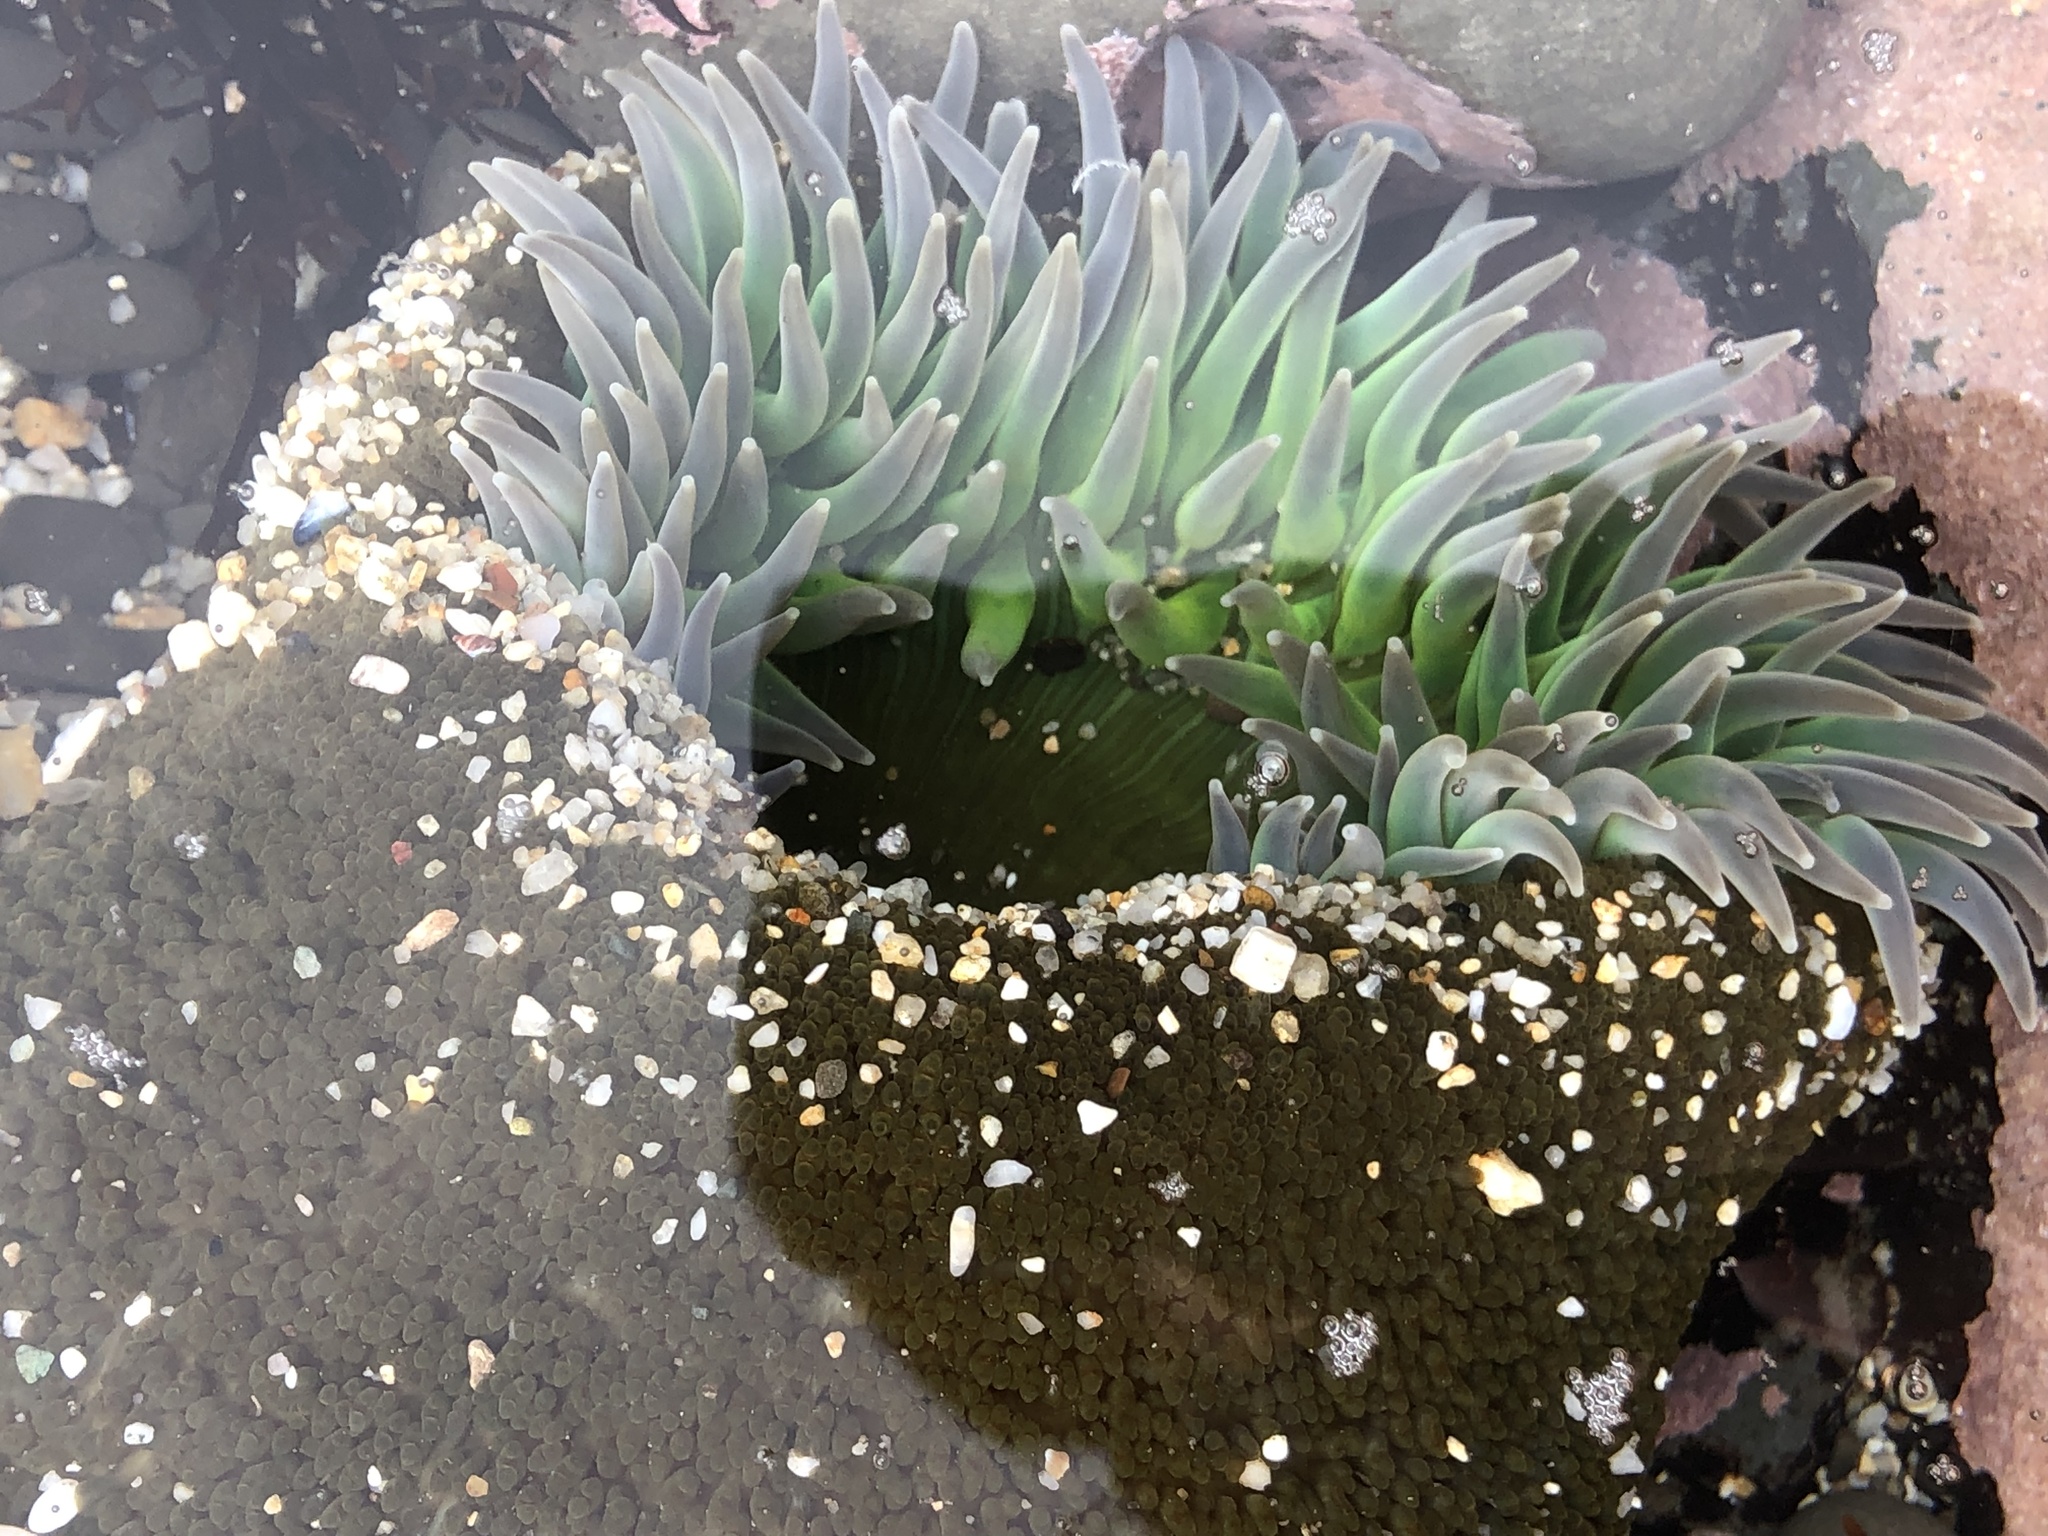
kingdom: Animalia
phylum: Cnidaria
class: Anthozoa
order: Actiniaria
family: Actiniidae
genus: Anthopleura
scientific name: Anthopleura xanthogrammica
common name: Giant green anemone
